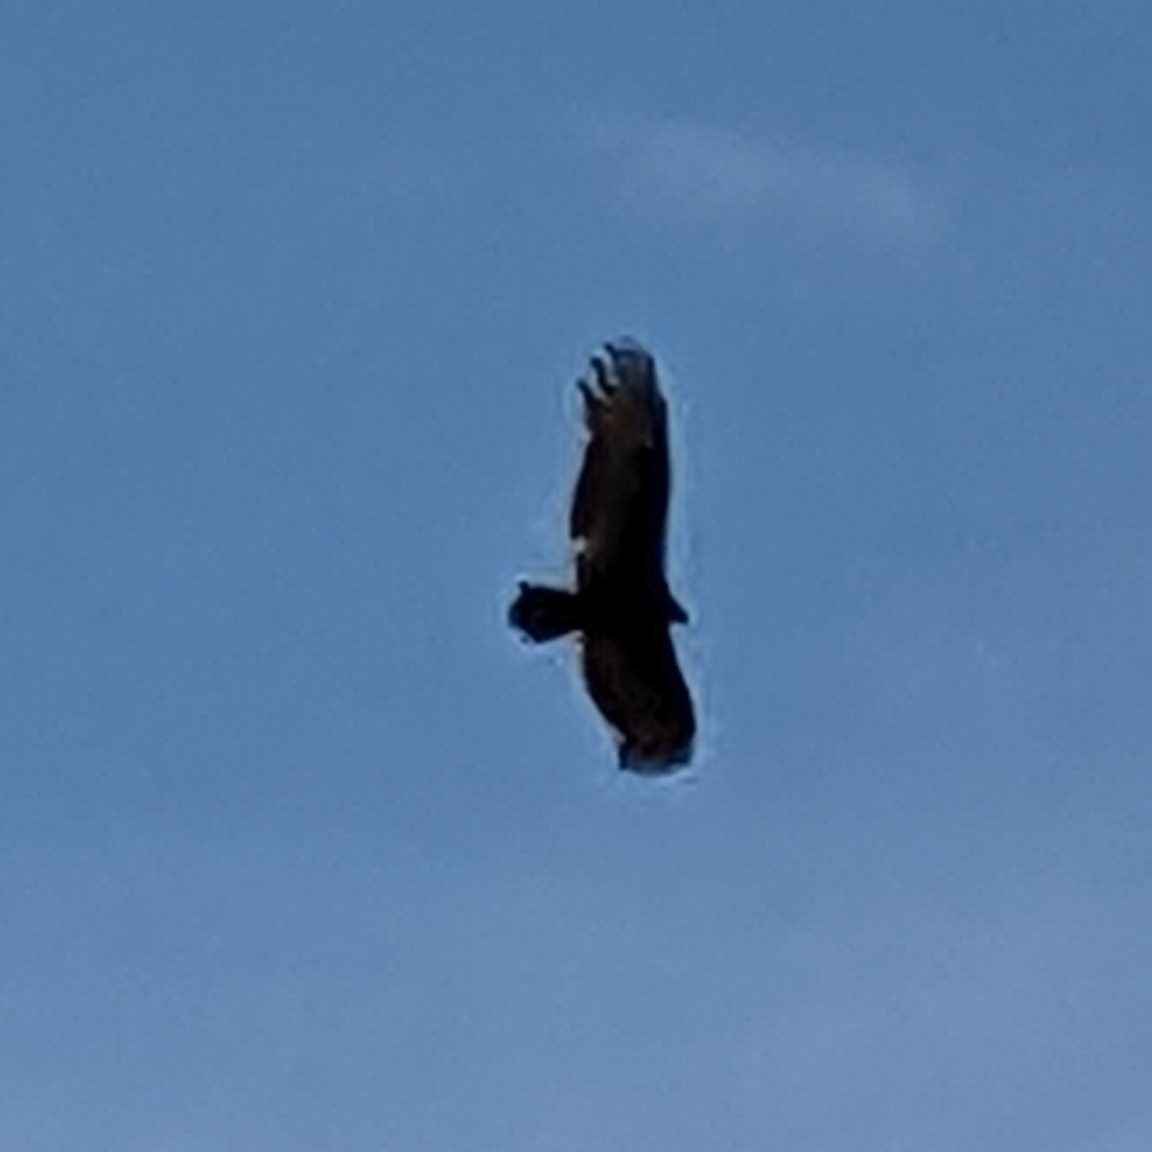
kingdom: Animalia
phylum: Chordata
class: Aves
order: Accipitriformes
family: Cathartidae
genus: Cathartes
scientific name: Cathartes aura
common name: Turkey vulture
